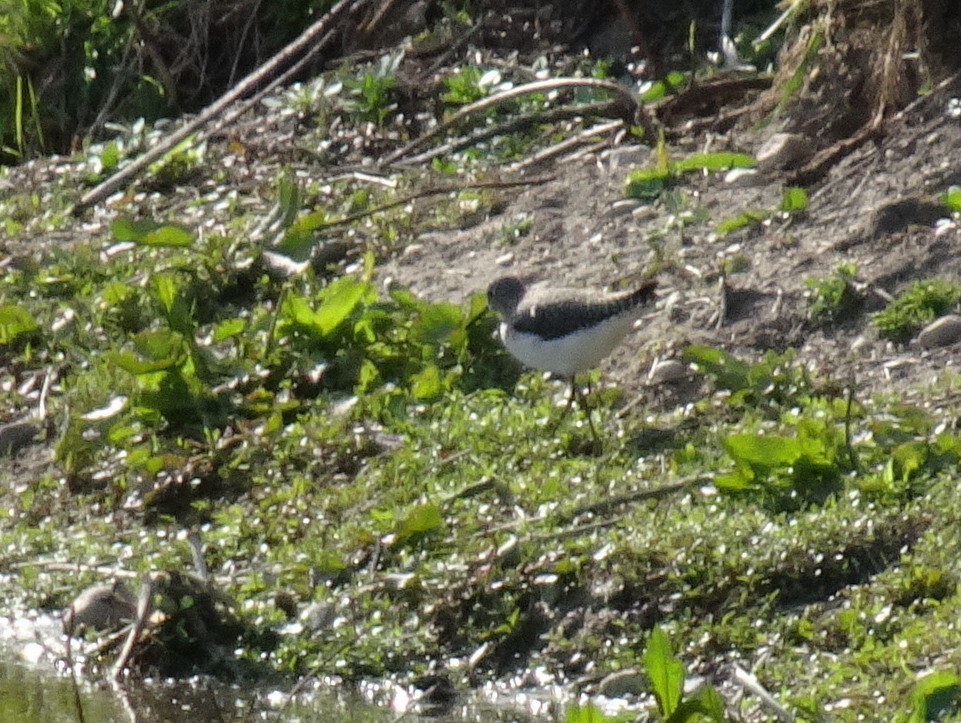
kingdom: Animalia
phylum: Chordata
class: Aves
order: Charadriiformes
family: Scolopacidae
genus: Tringa
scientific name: Tringa solitaria
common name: Solitary sandpiper
